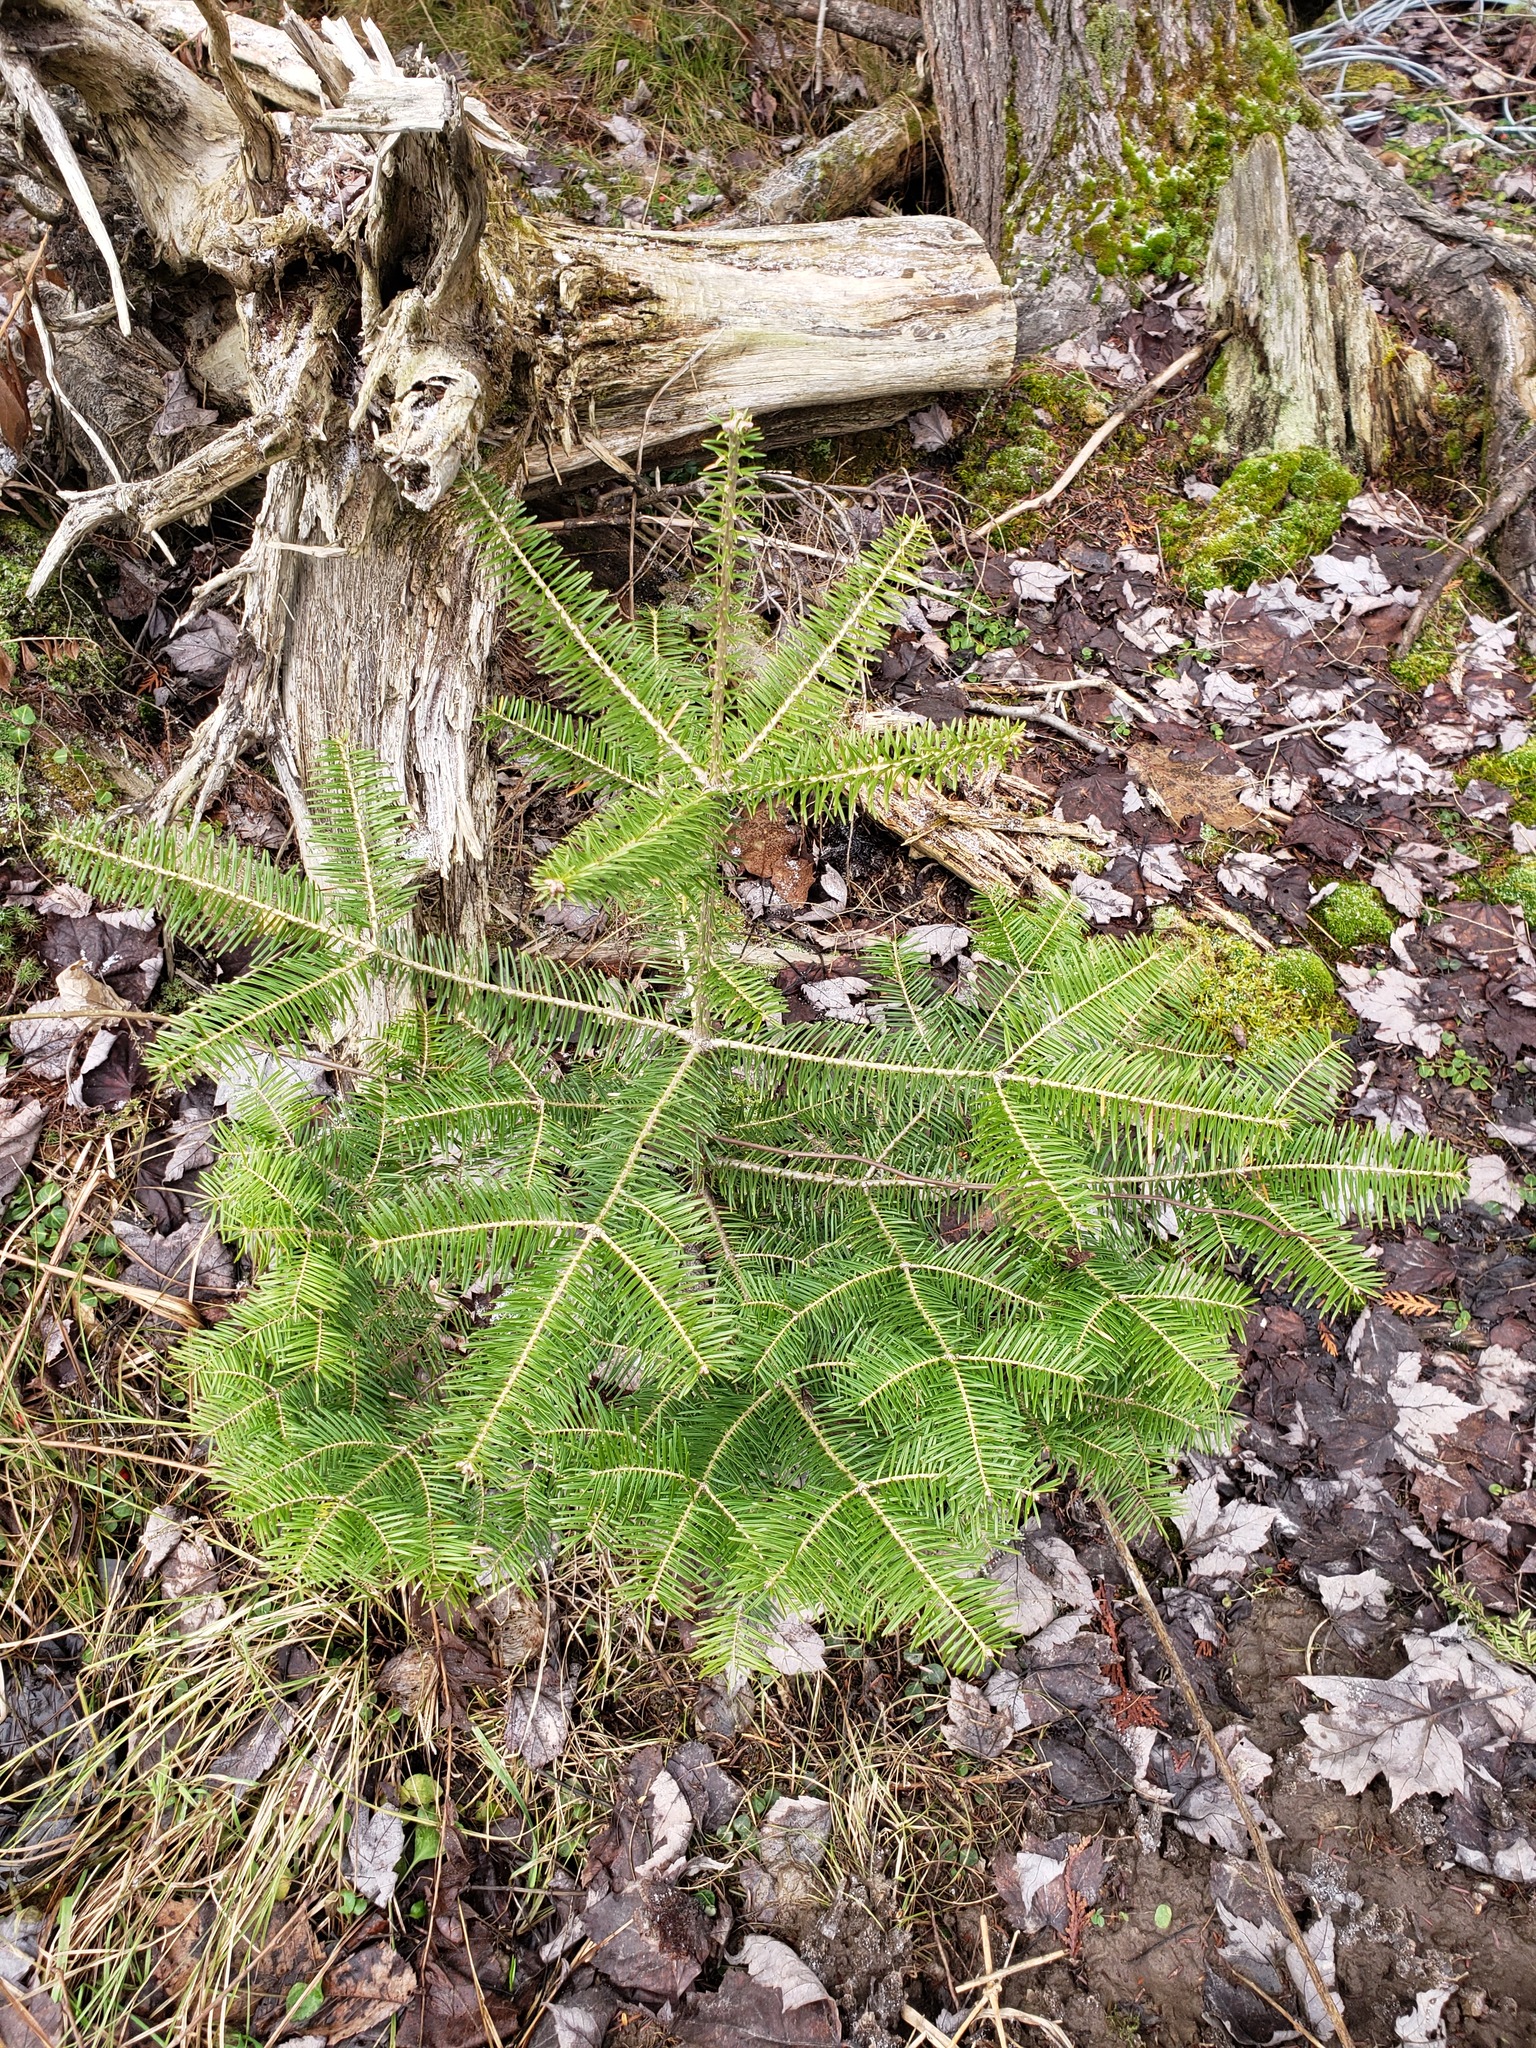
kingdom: Plantae
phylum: Tracheophyta
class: Pinopsida
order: Pinales
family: Pinaceae
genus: Abies
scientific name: Abies balsamea
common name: Balsam fir
